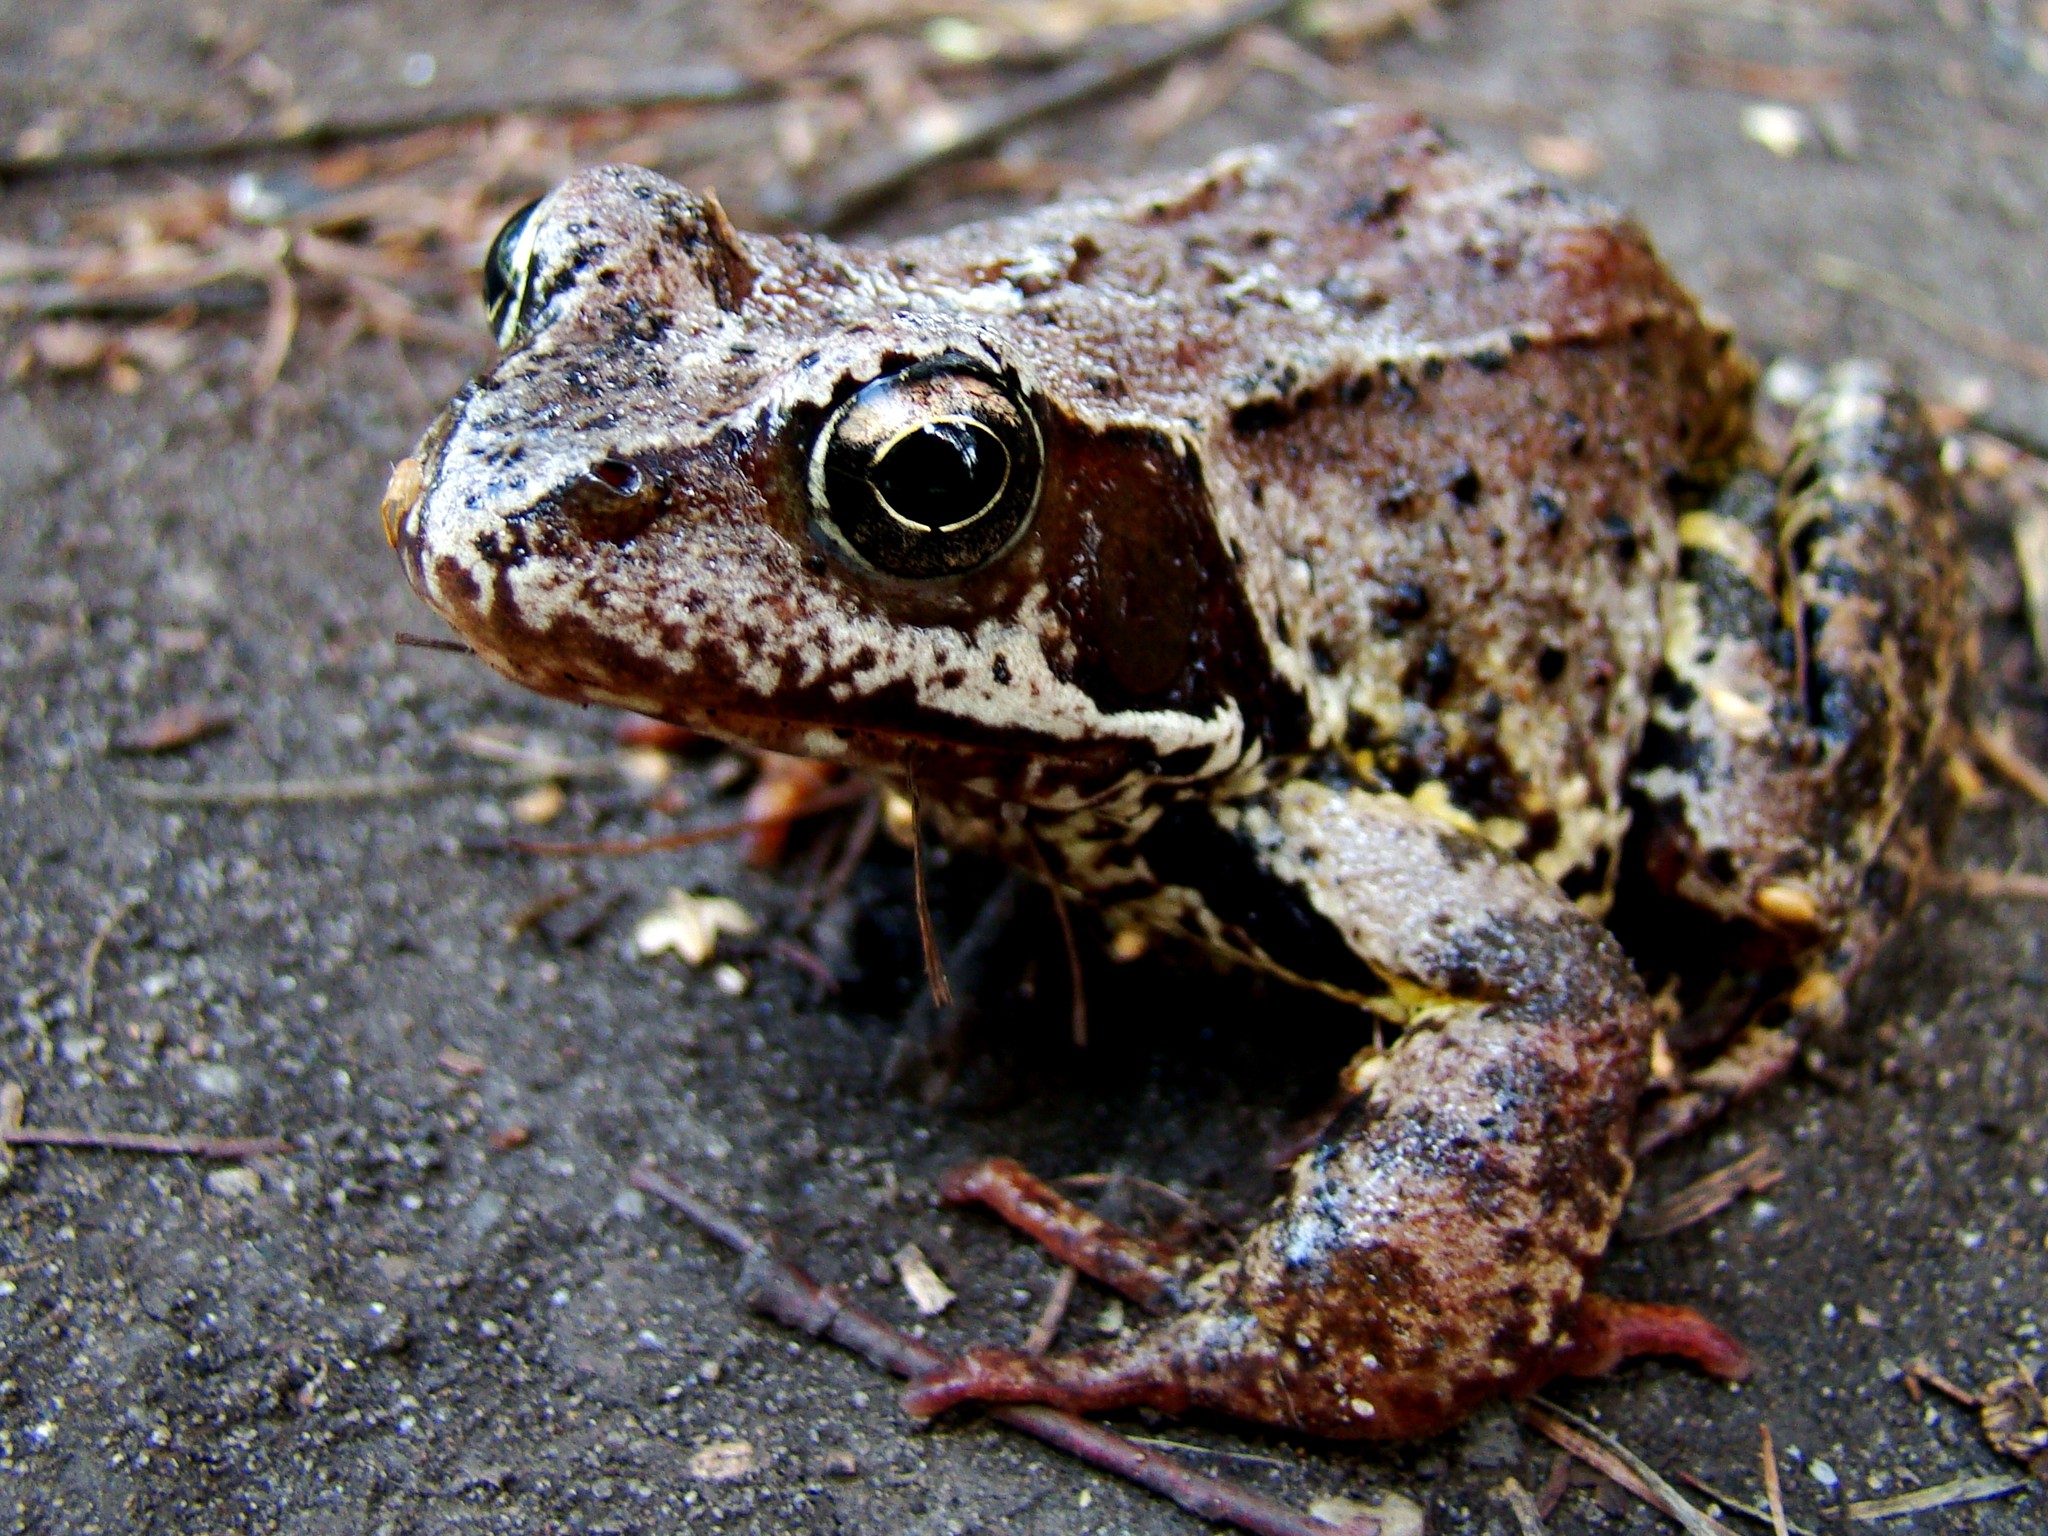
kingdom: Animalia
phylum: Chordata
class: Amphibia
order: Anura
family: Ranidae
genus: Rana
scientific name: Rana temporaria
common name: Common frog
